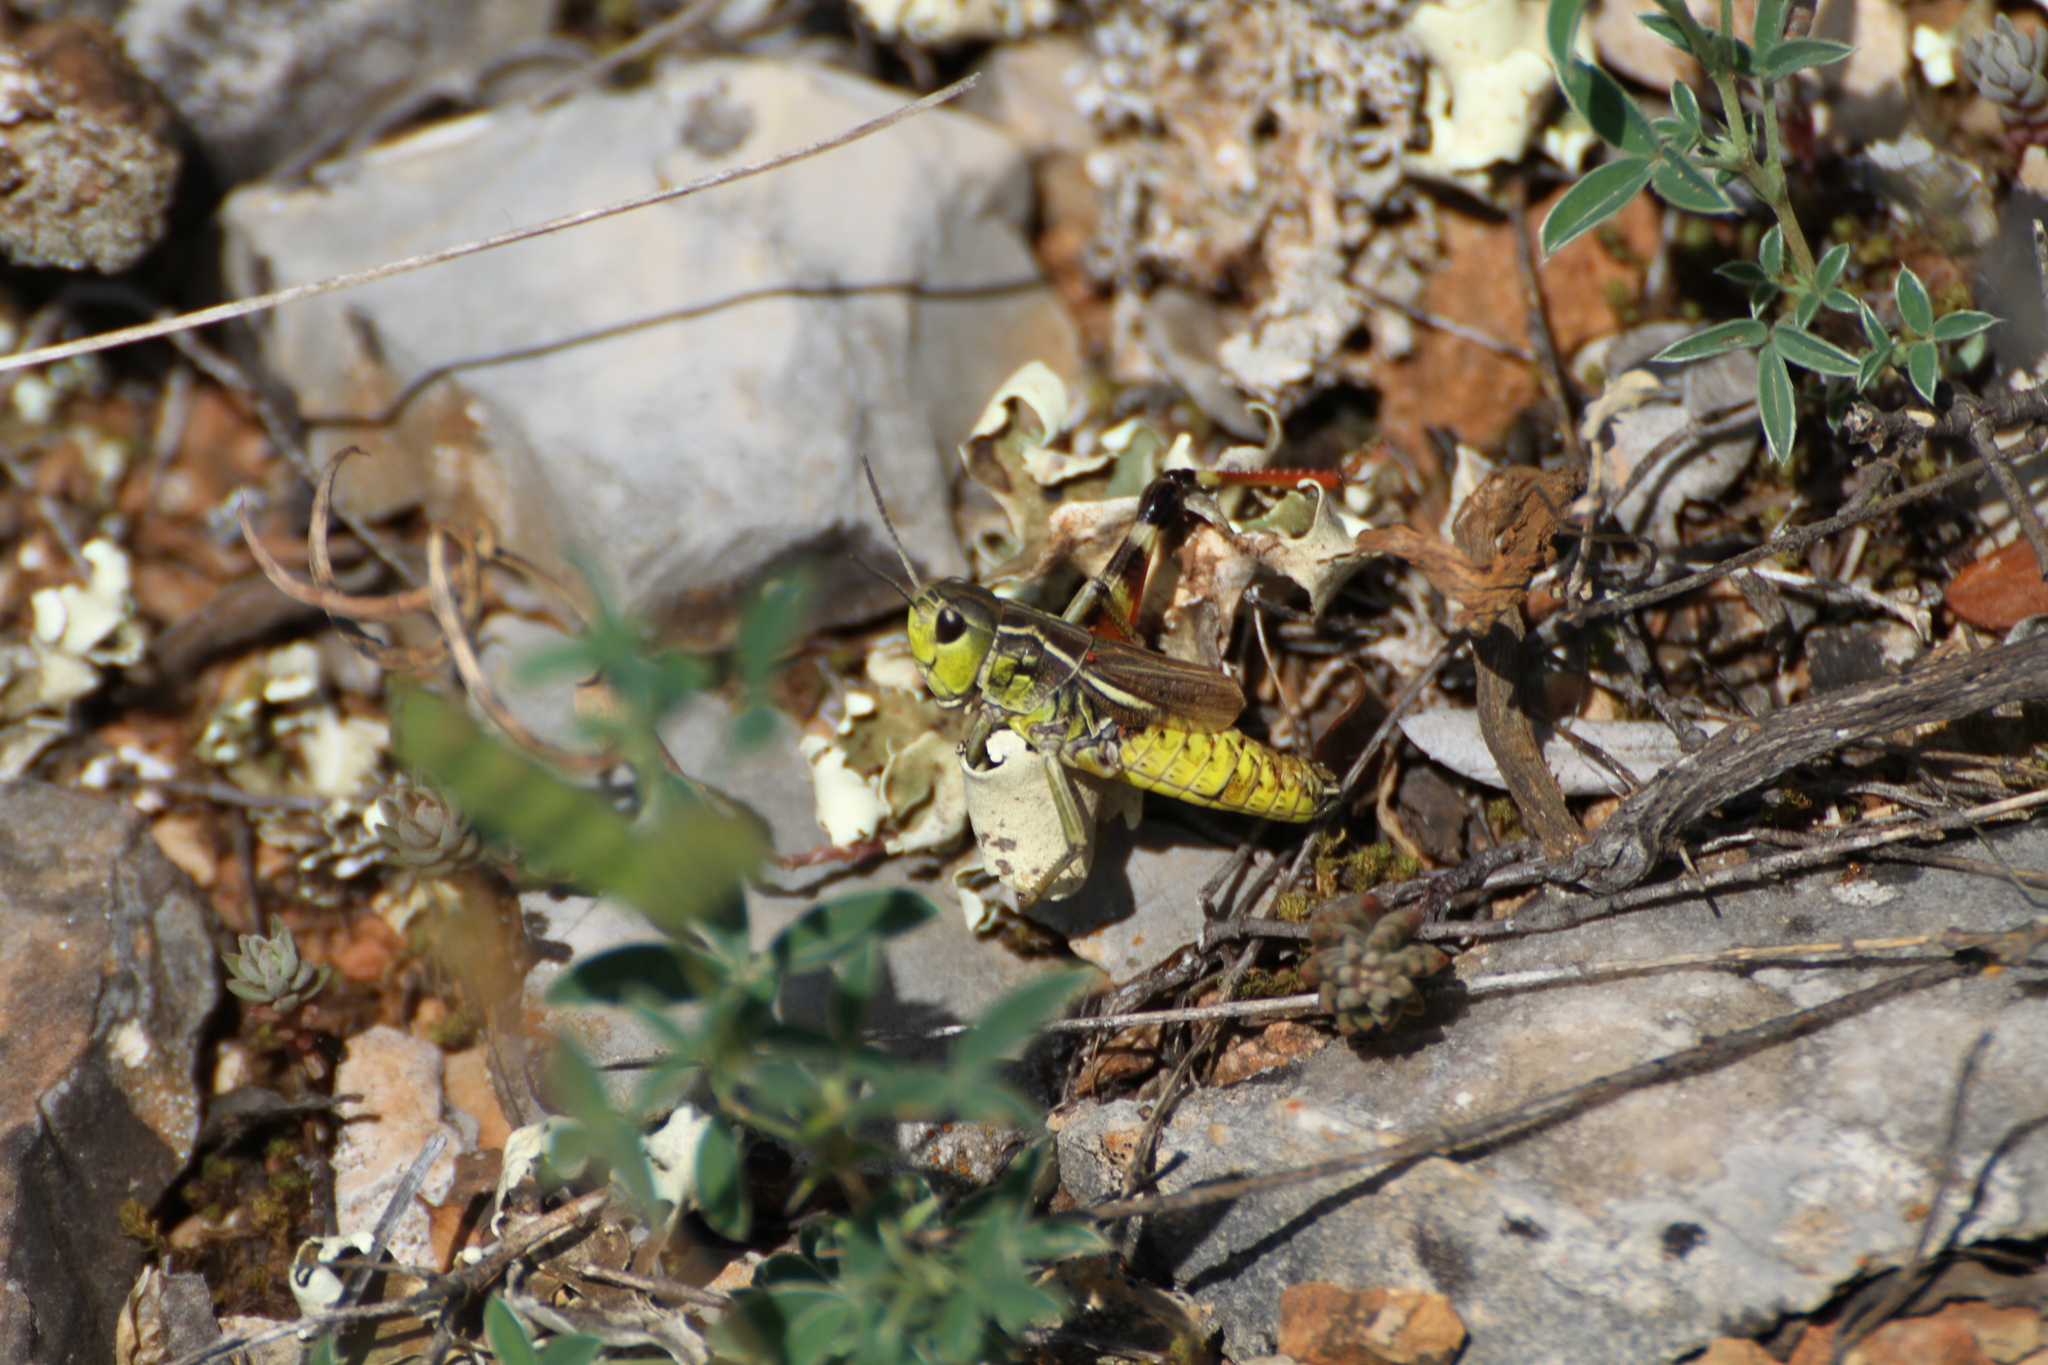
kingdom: Animalia
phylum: Arthropoda
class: Insecta
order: Orthoptera
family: Acrididae
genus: Arcyptera
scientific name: Arcyptera kheili
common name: Provence banded grasshopper
